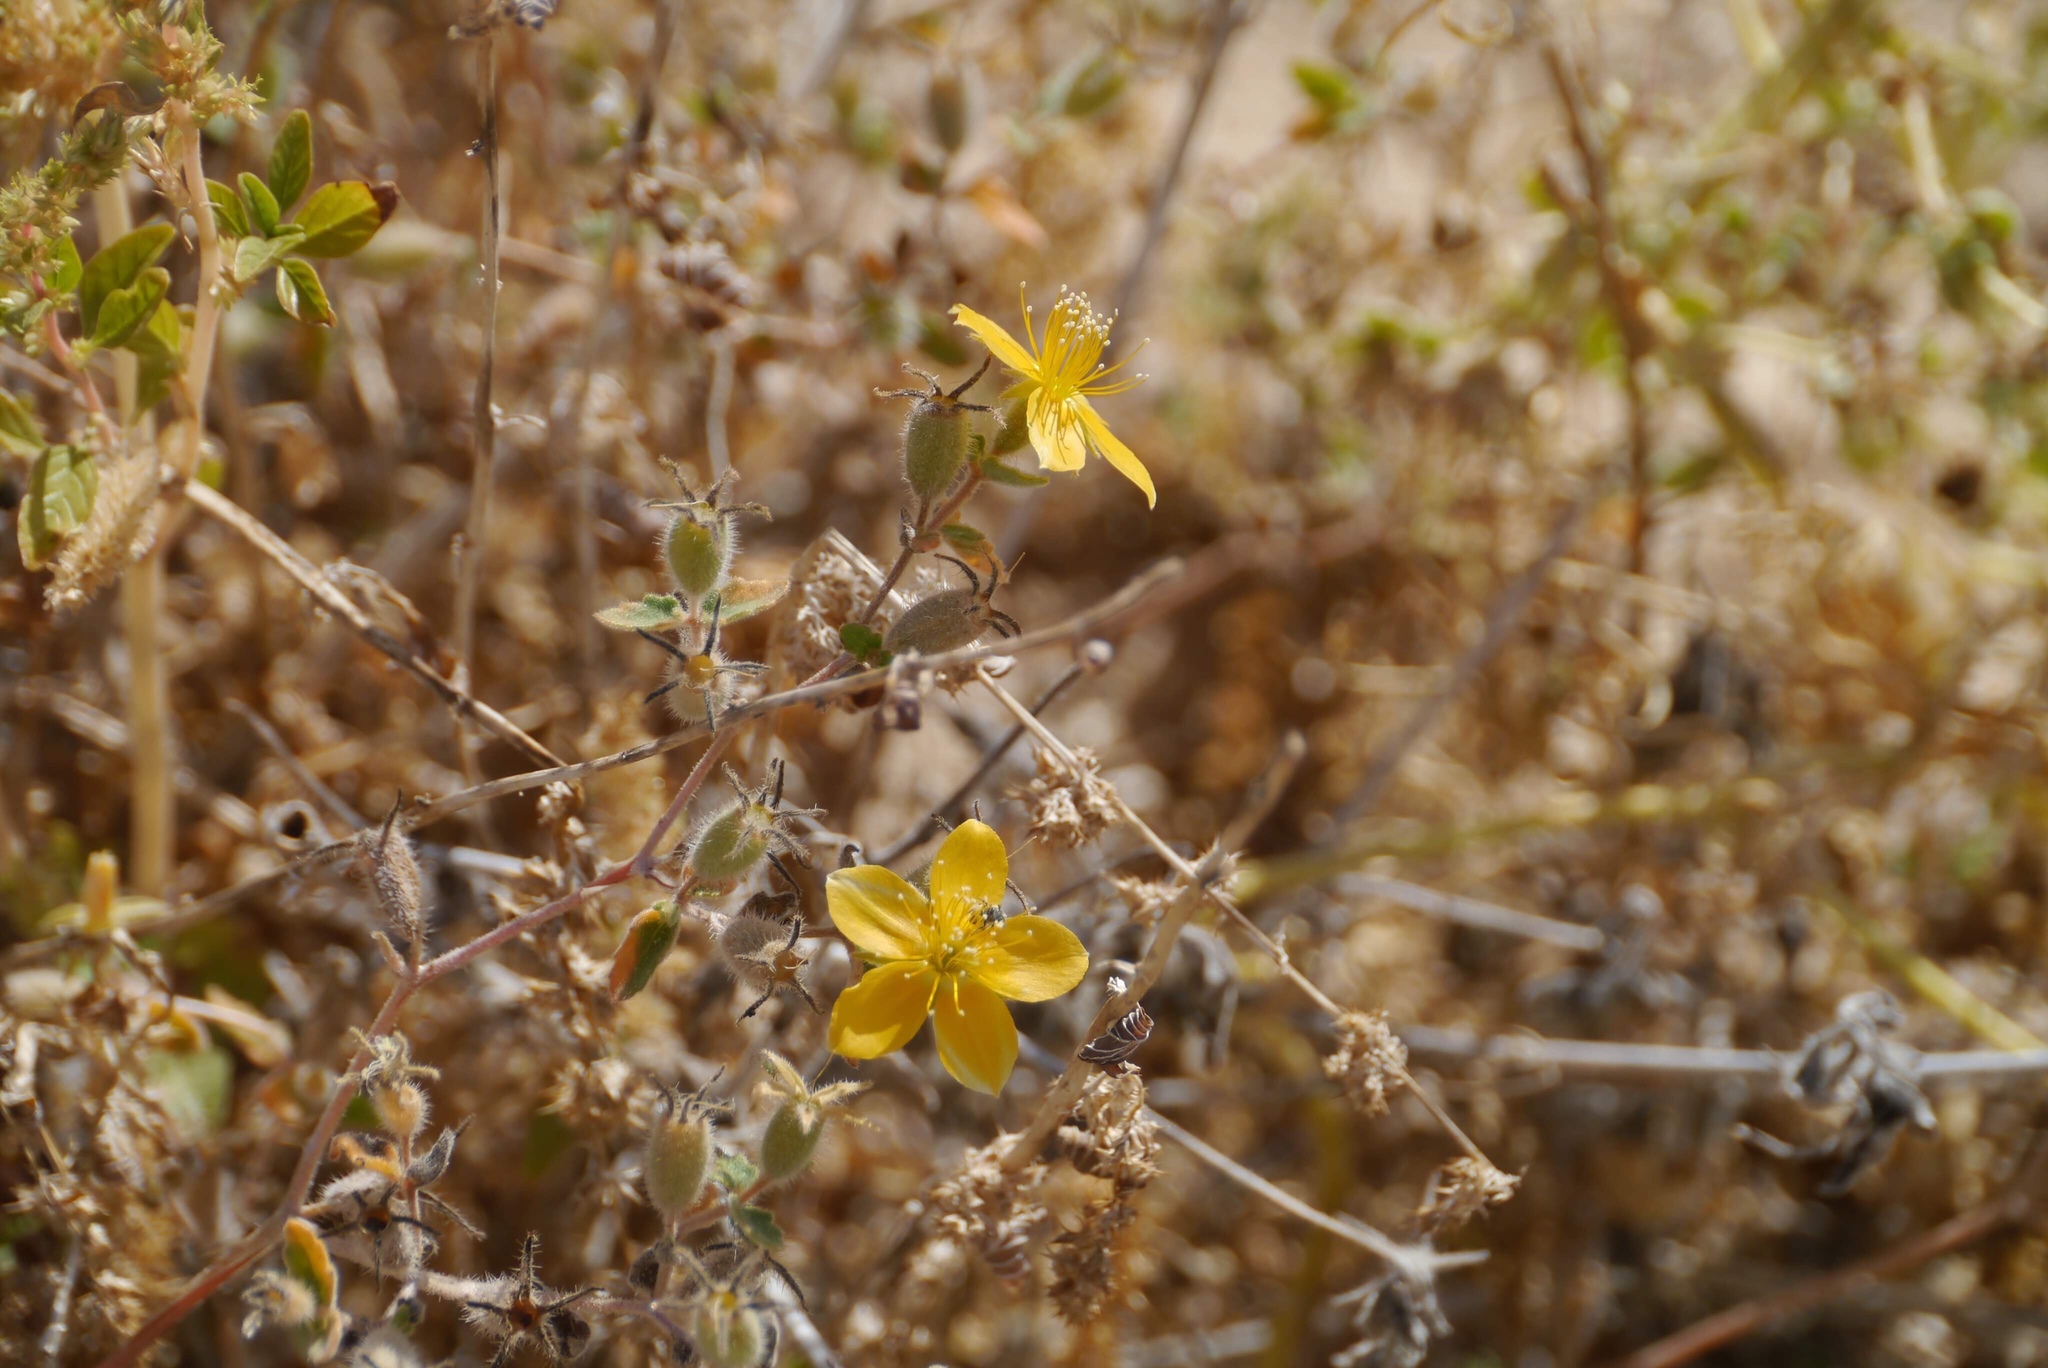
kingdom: Plantae
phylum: Tracheophyta
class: Magnoliopsida
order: Cornales
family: Loasaceae
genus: Mentzelia
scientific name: Mentzelia adhaerens
